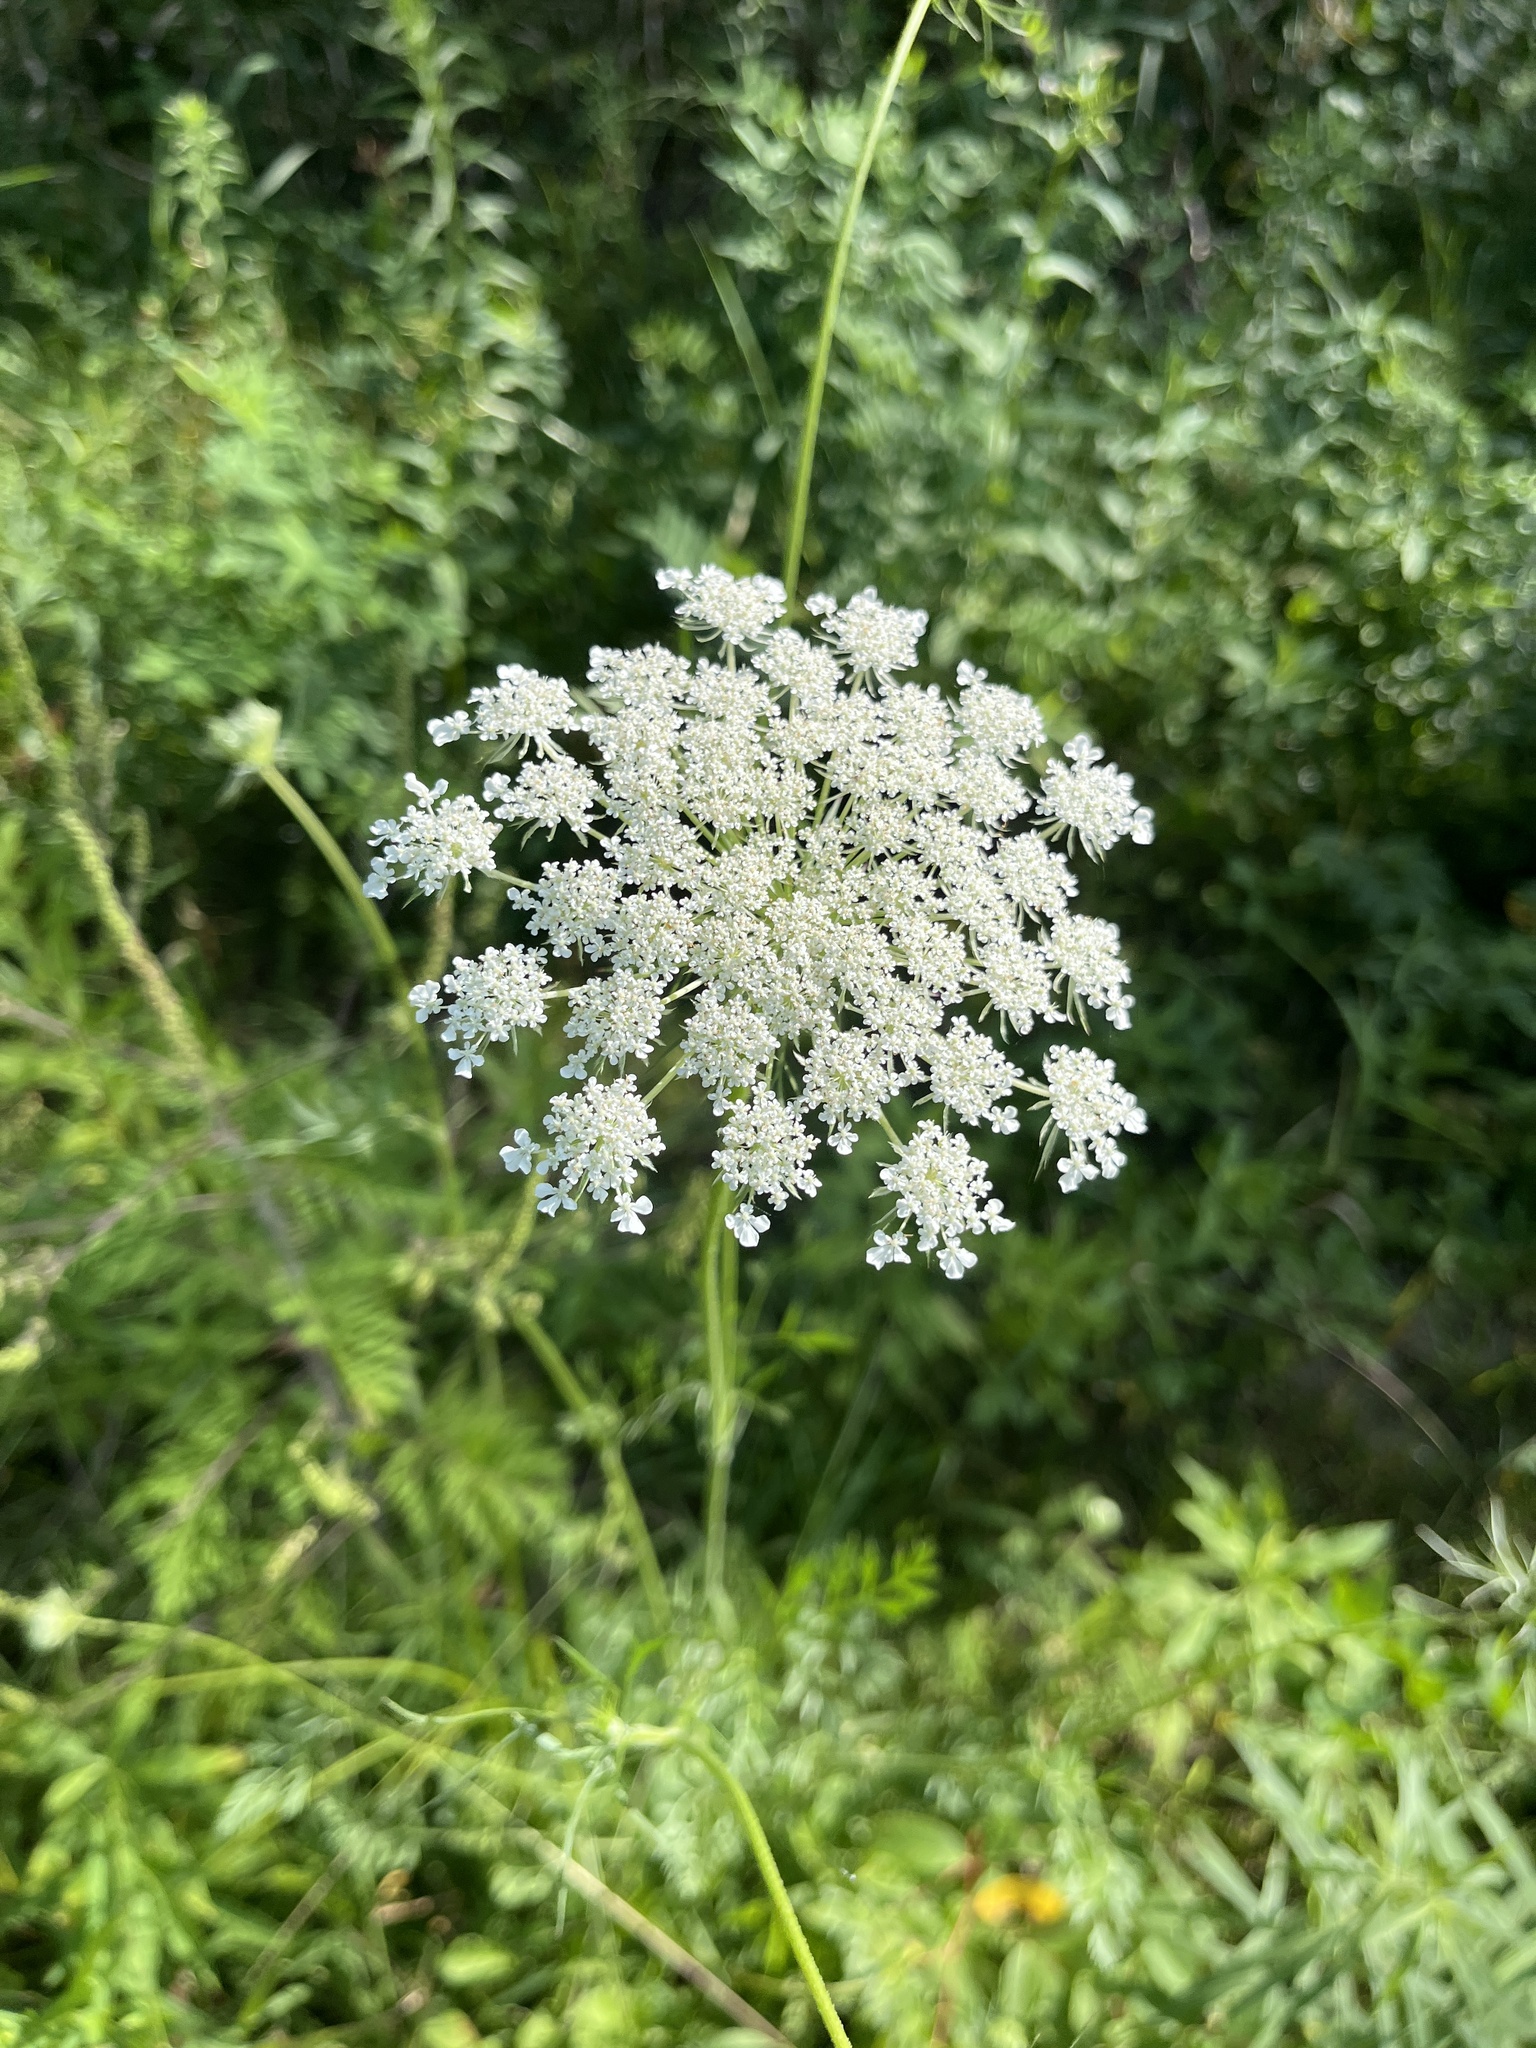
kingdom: Plantae
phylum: Tracheophyta
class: Magnoliopsida
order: Apiales
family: Apiaceae
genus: Daucus
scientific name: Daucus carota
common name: Wild carrot
